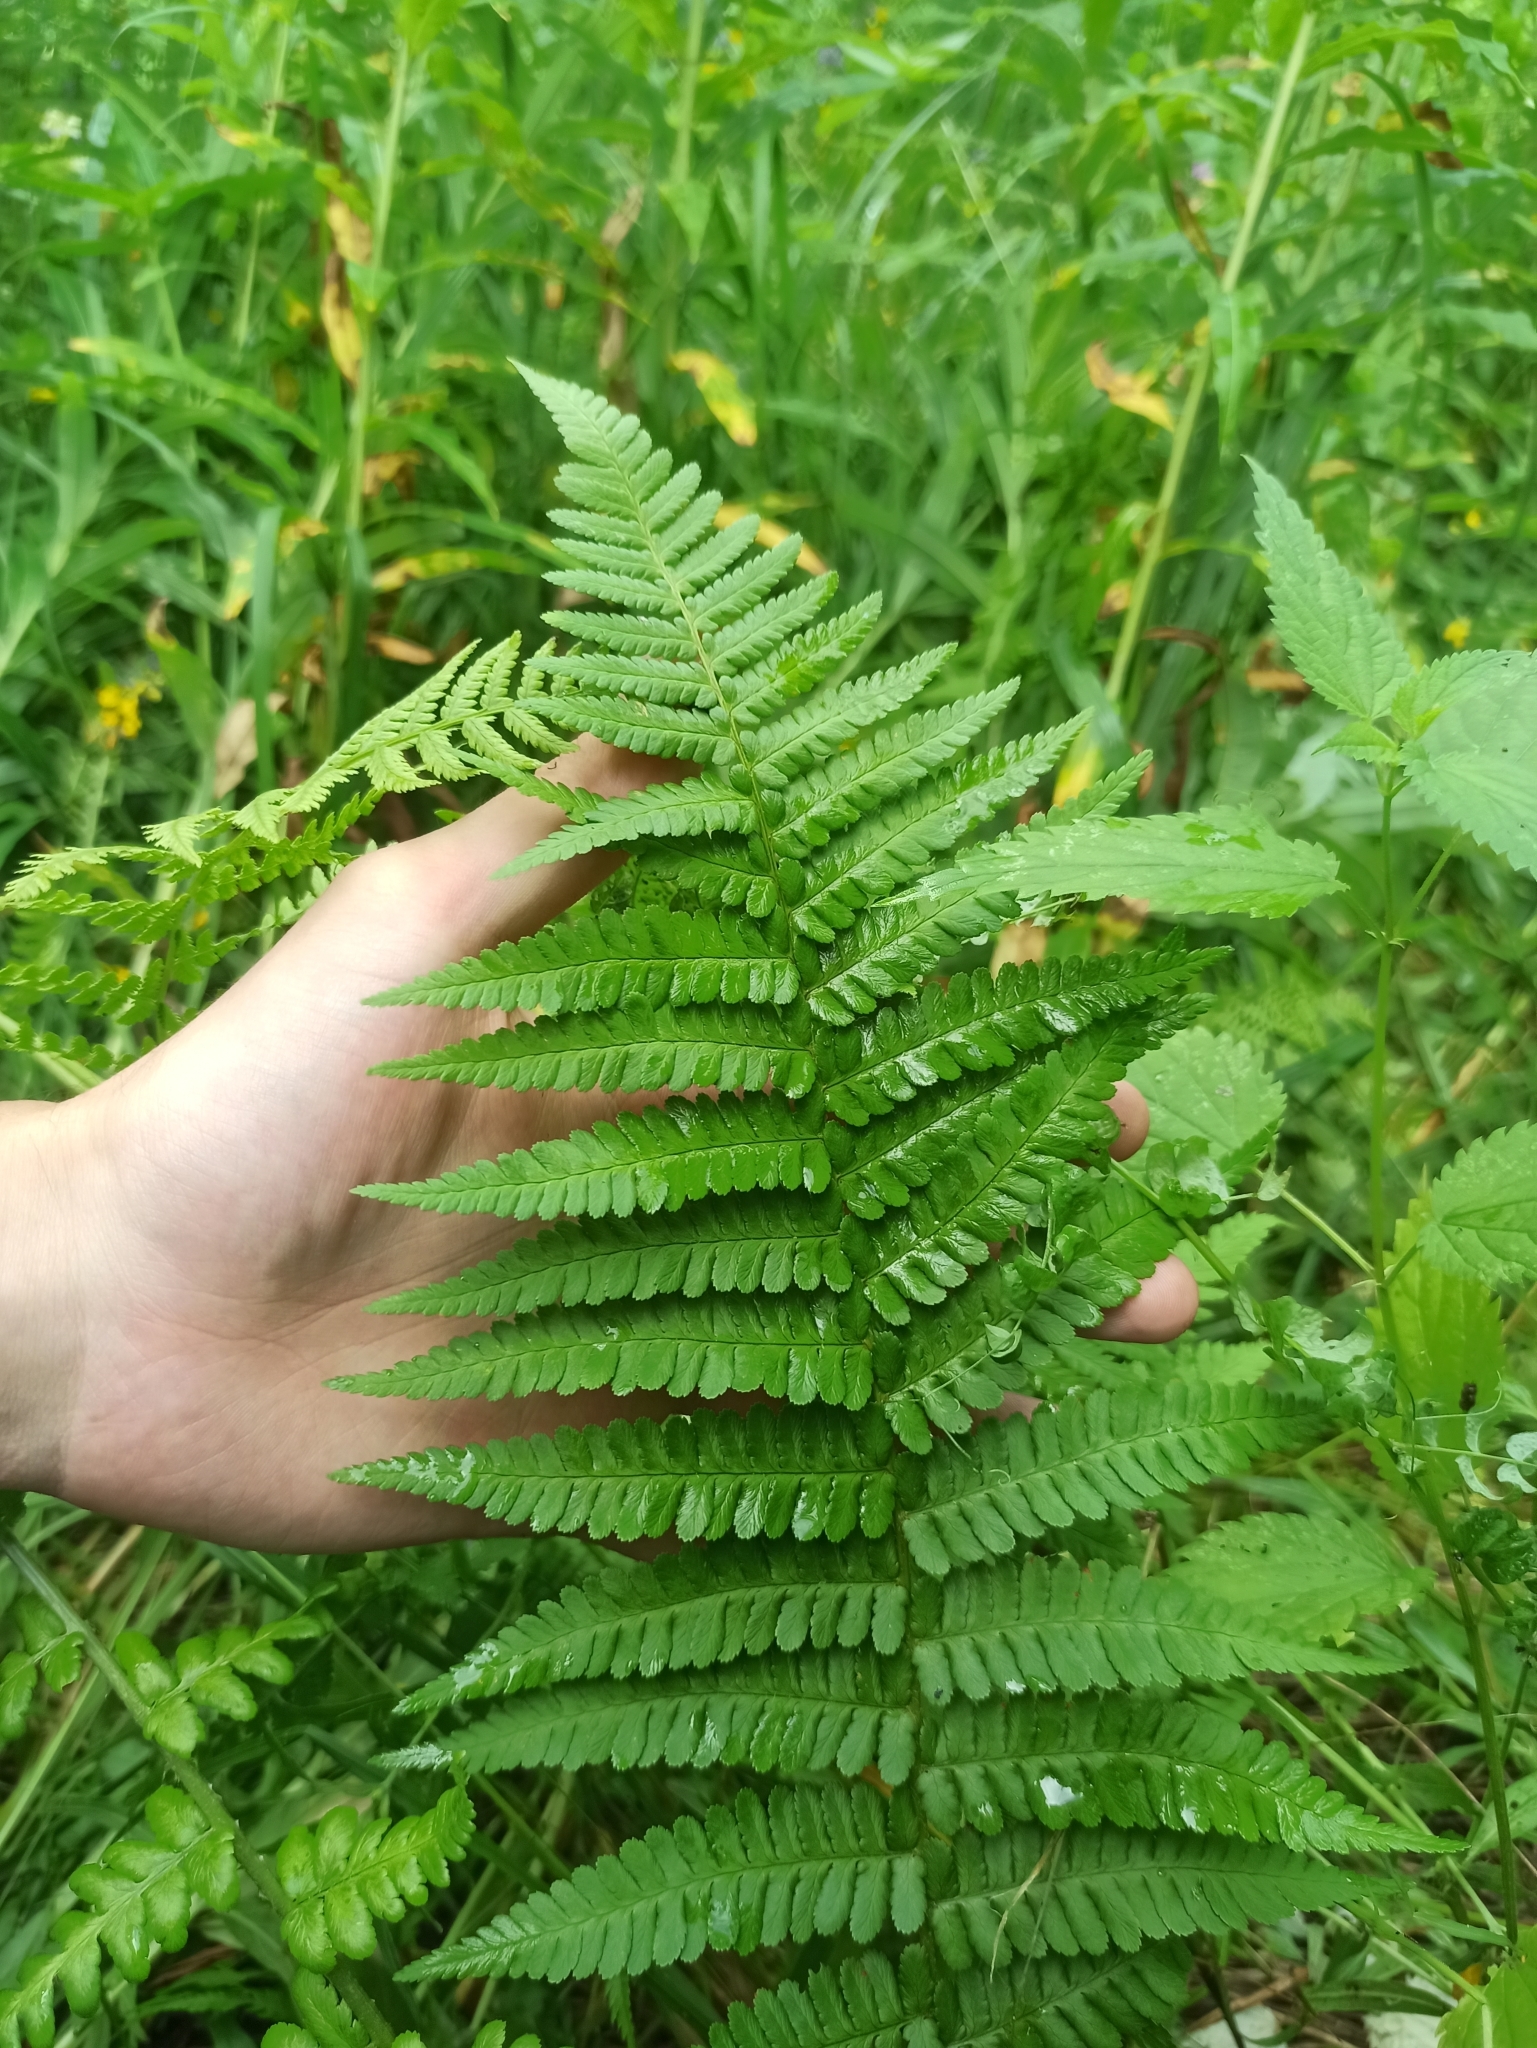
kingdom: Plantae
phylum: Tracheophyta
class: Polypodiopsida
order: Polypodiales
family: Dryopteridaceae
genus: Dryopteris
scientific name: Dryopteris filix-mas
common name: Male fern
